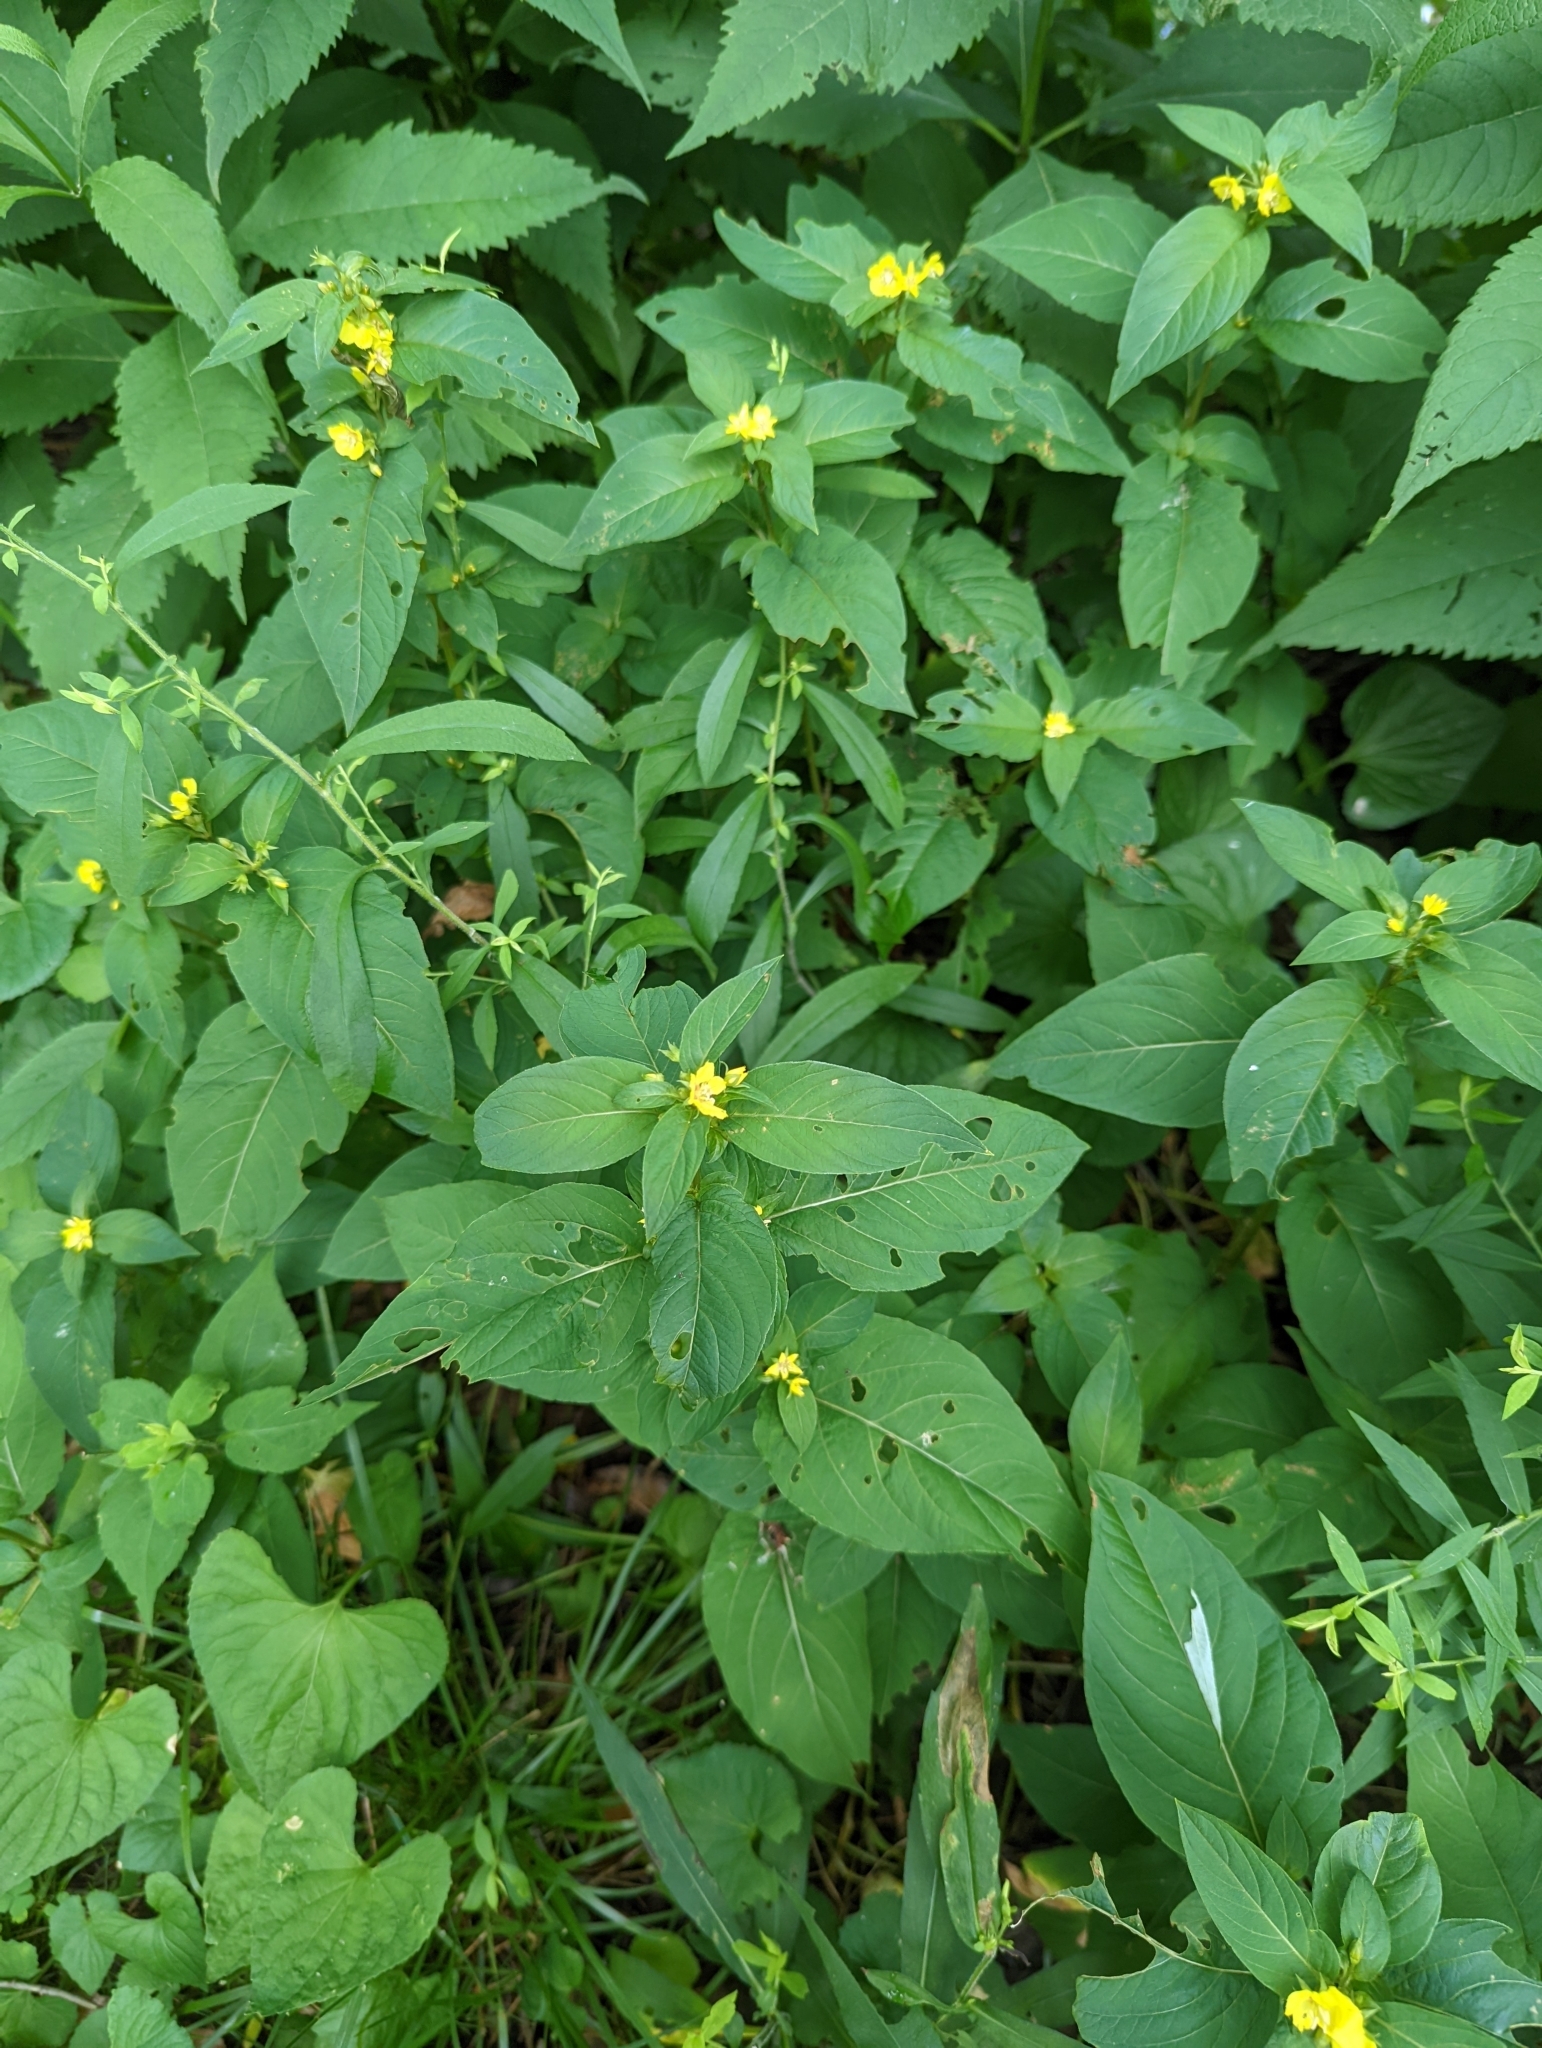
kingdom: Plantae
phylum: Tracheophyta
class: Magnoliopsida
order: Ericales
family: Primulaceae
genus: Lysimachia
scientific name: Lysimachia ciliata
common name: Fringed loosestrife
